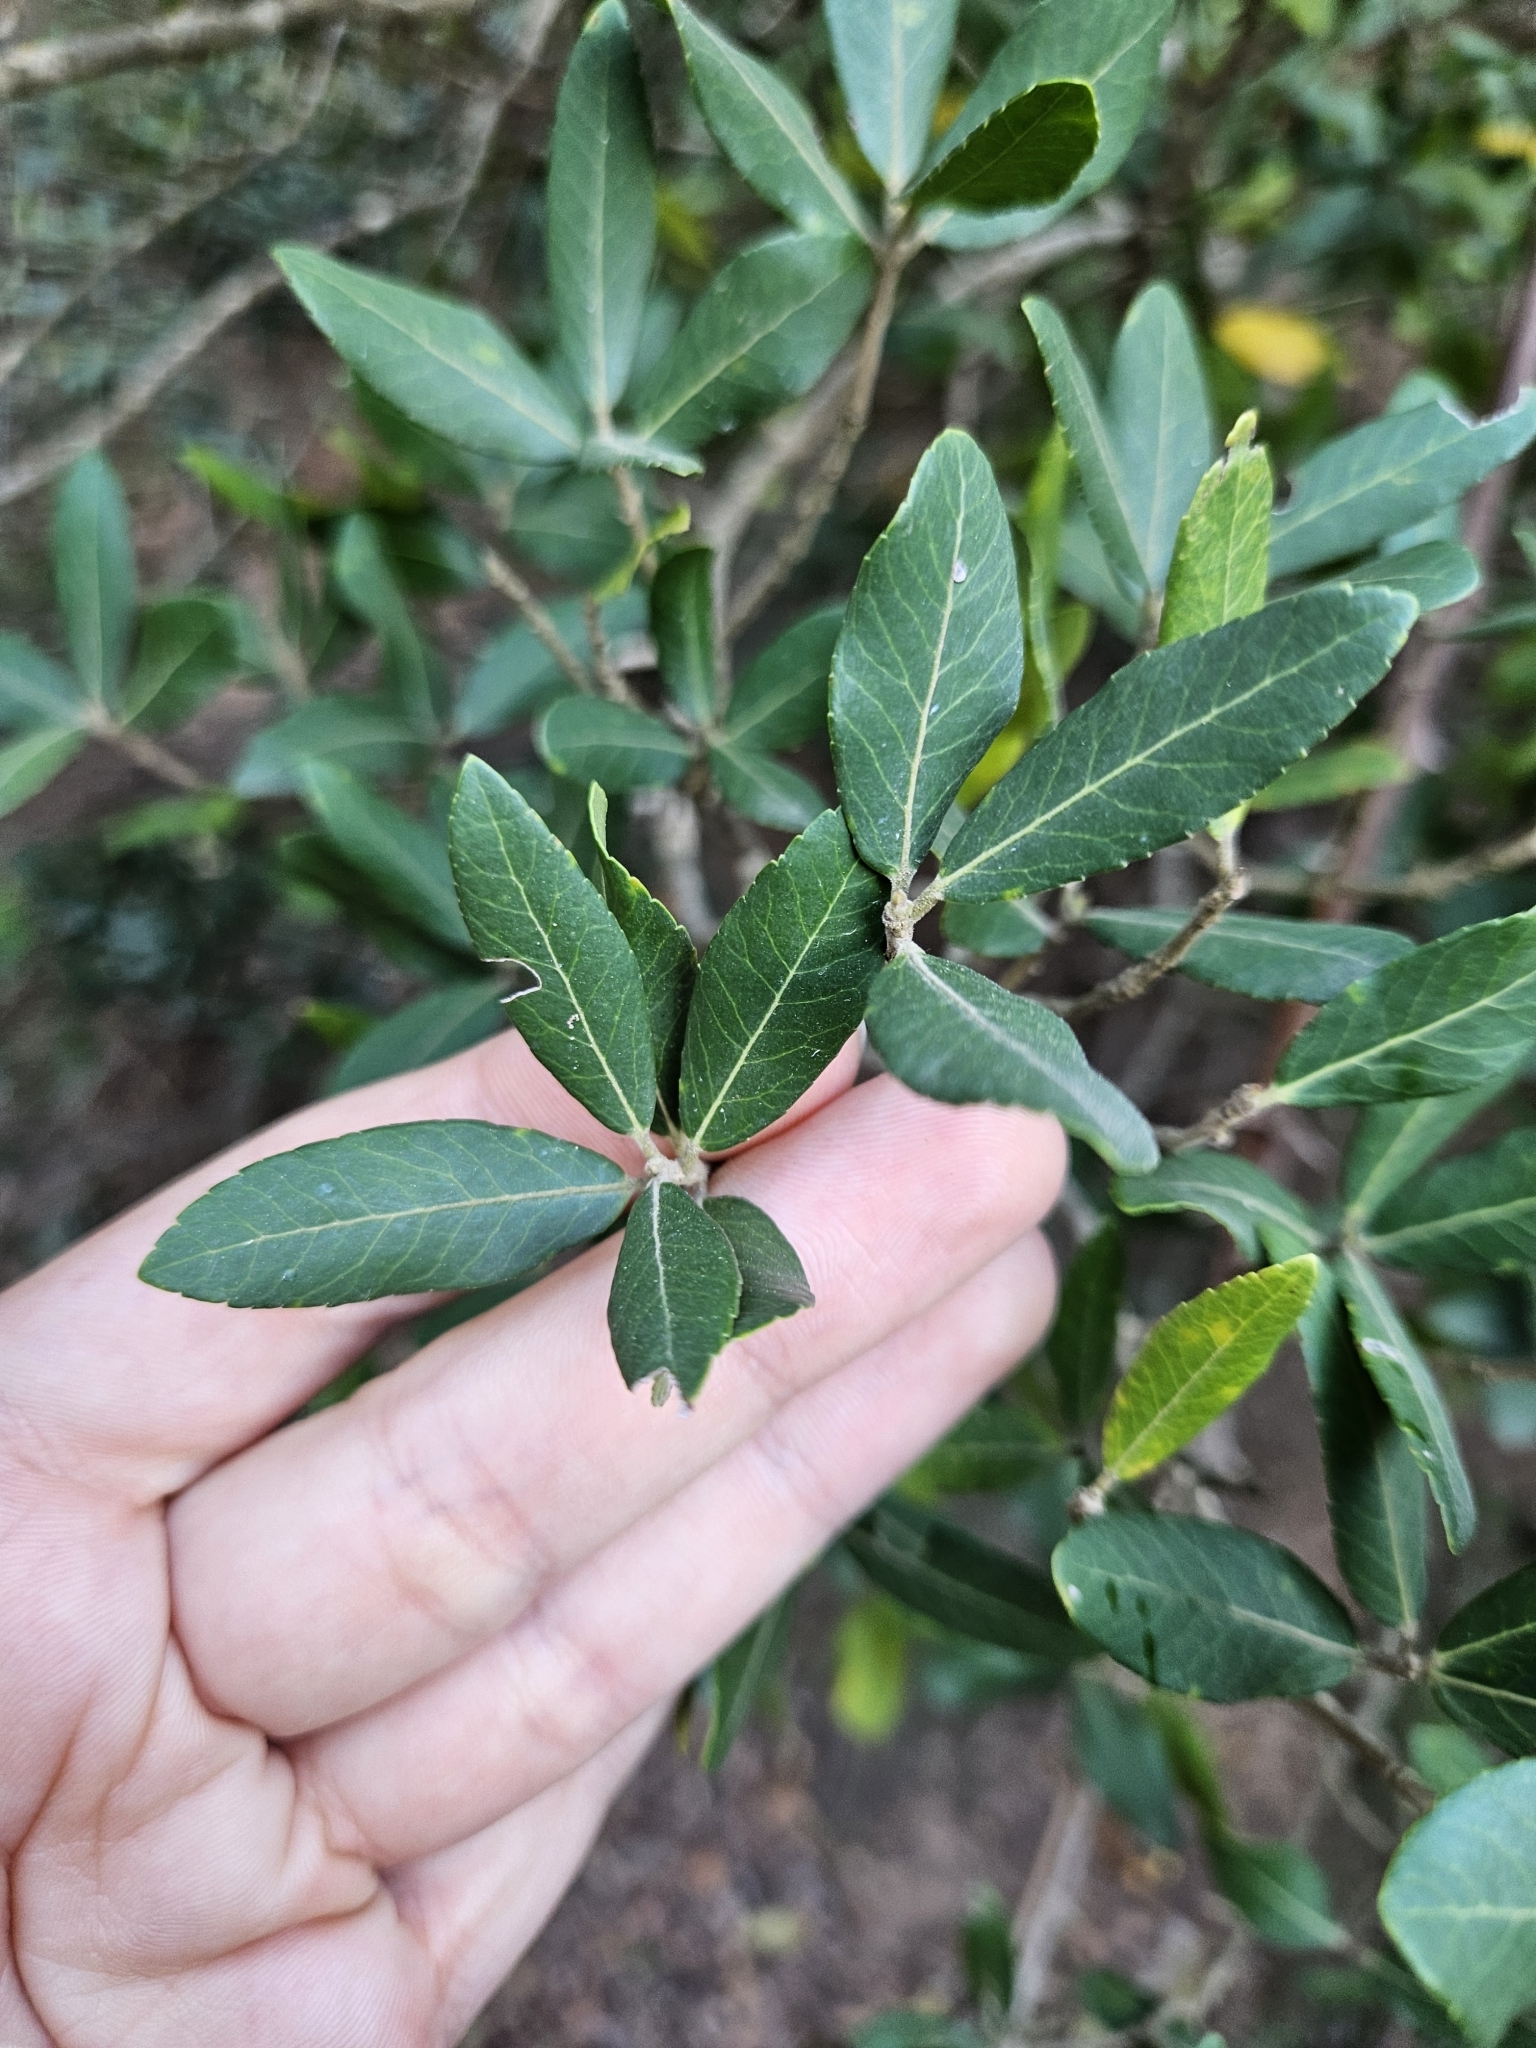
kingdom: Plantae
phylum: Tracheophyta
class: Magnoliopsida
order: Lamiales
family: Oleaceae
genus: Phillyrea
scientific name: Phillyrea latifolia
